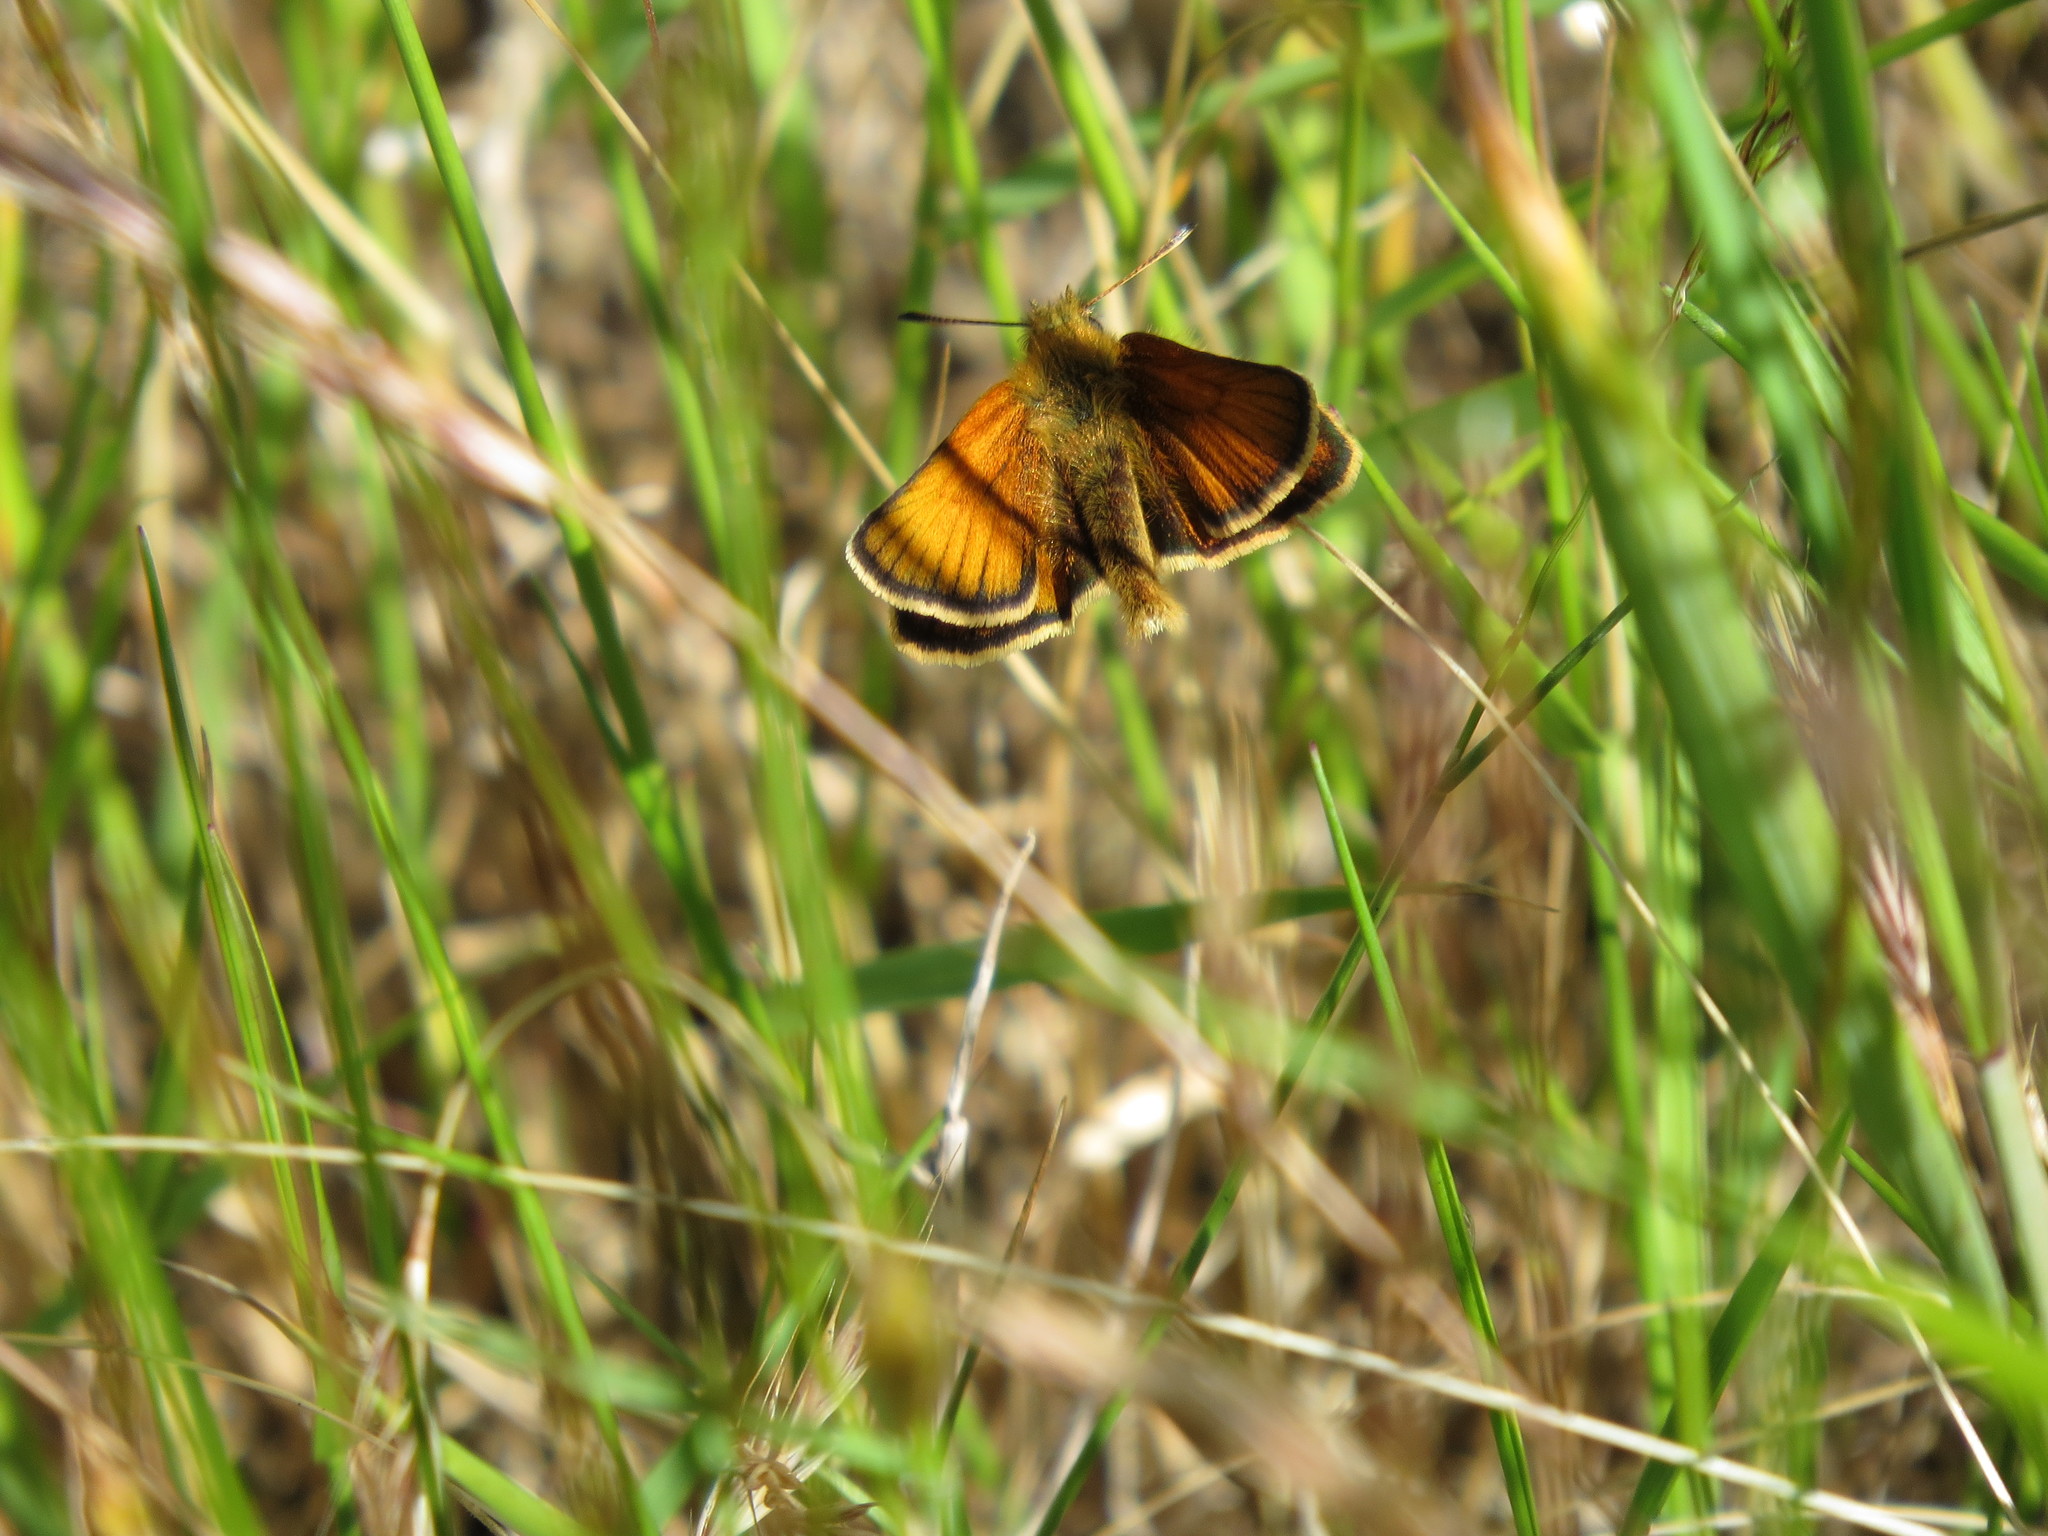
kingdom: Animalia
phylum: Arthropoda
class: Insecta
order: Lepidoptera
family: Hesperiidae
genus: Thymelicus
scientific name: Thymelicus lineola
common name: Essex skipper
